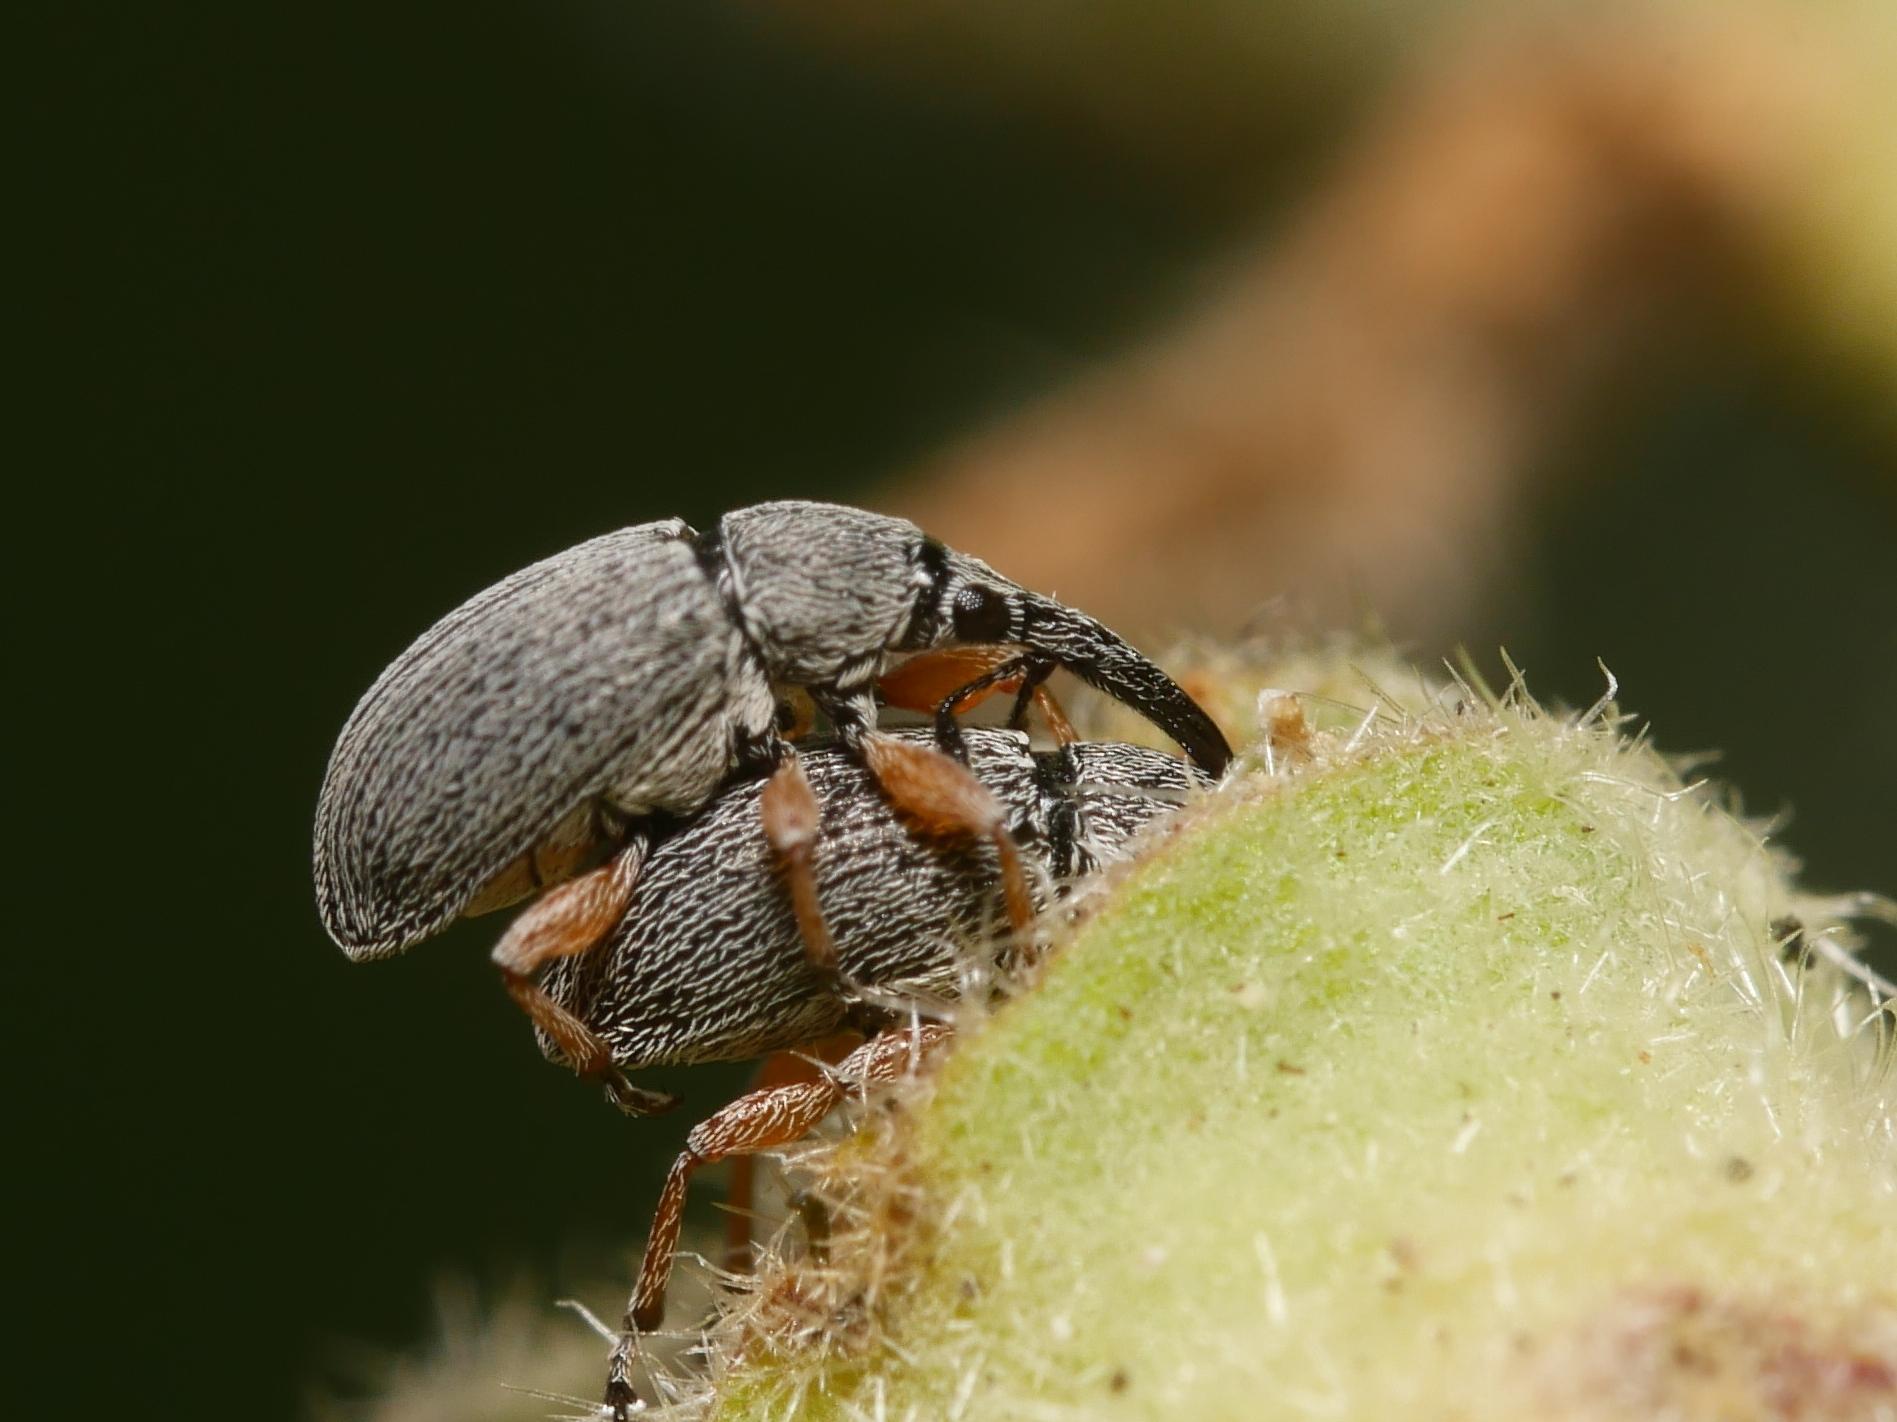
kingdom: Animalia
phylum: Arthropoda
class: Insecta
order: Coleoptera
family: Brentidae
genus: Rhopalapion
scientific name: Rhopalapion longirostre
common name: Hollyhock weevil
